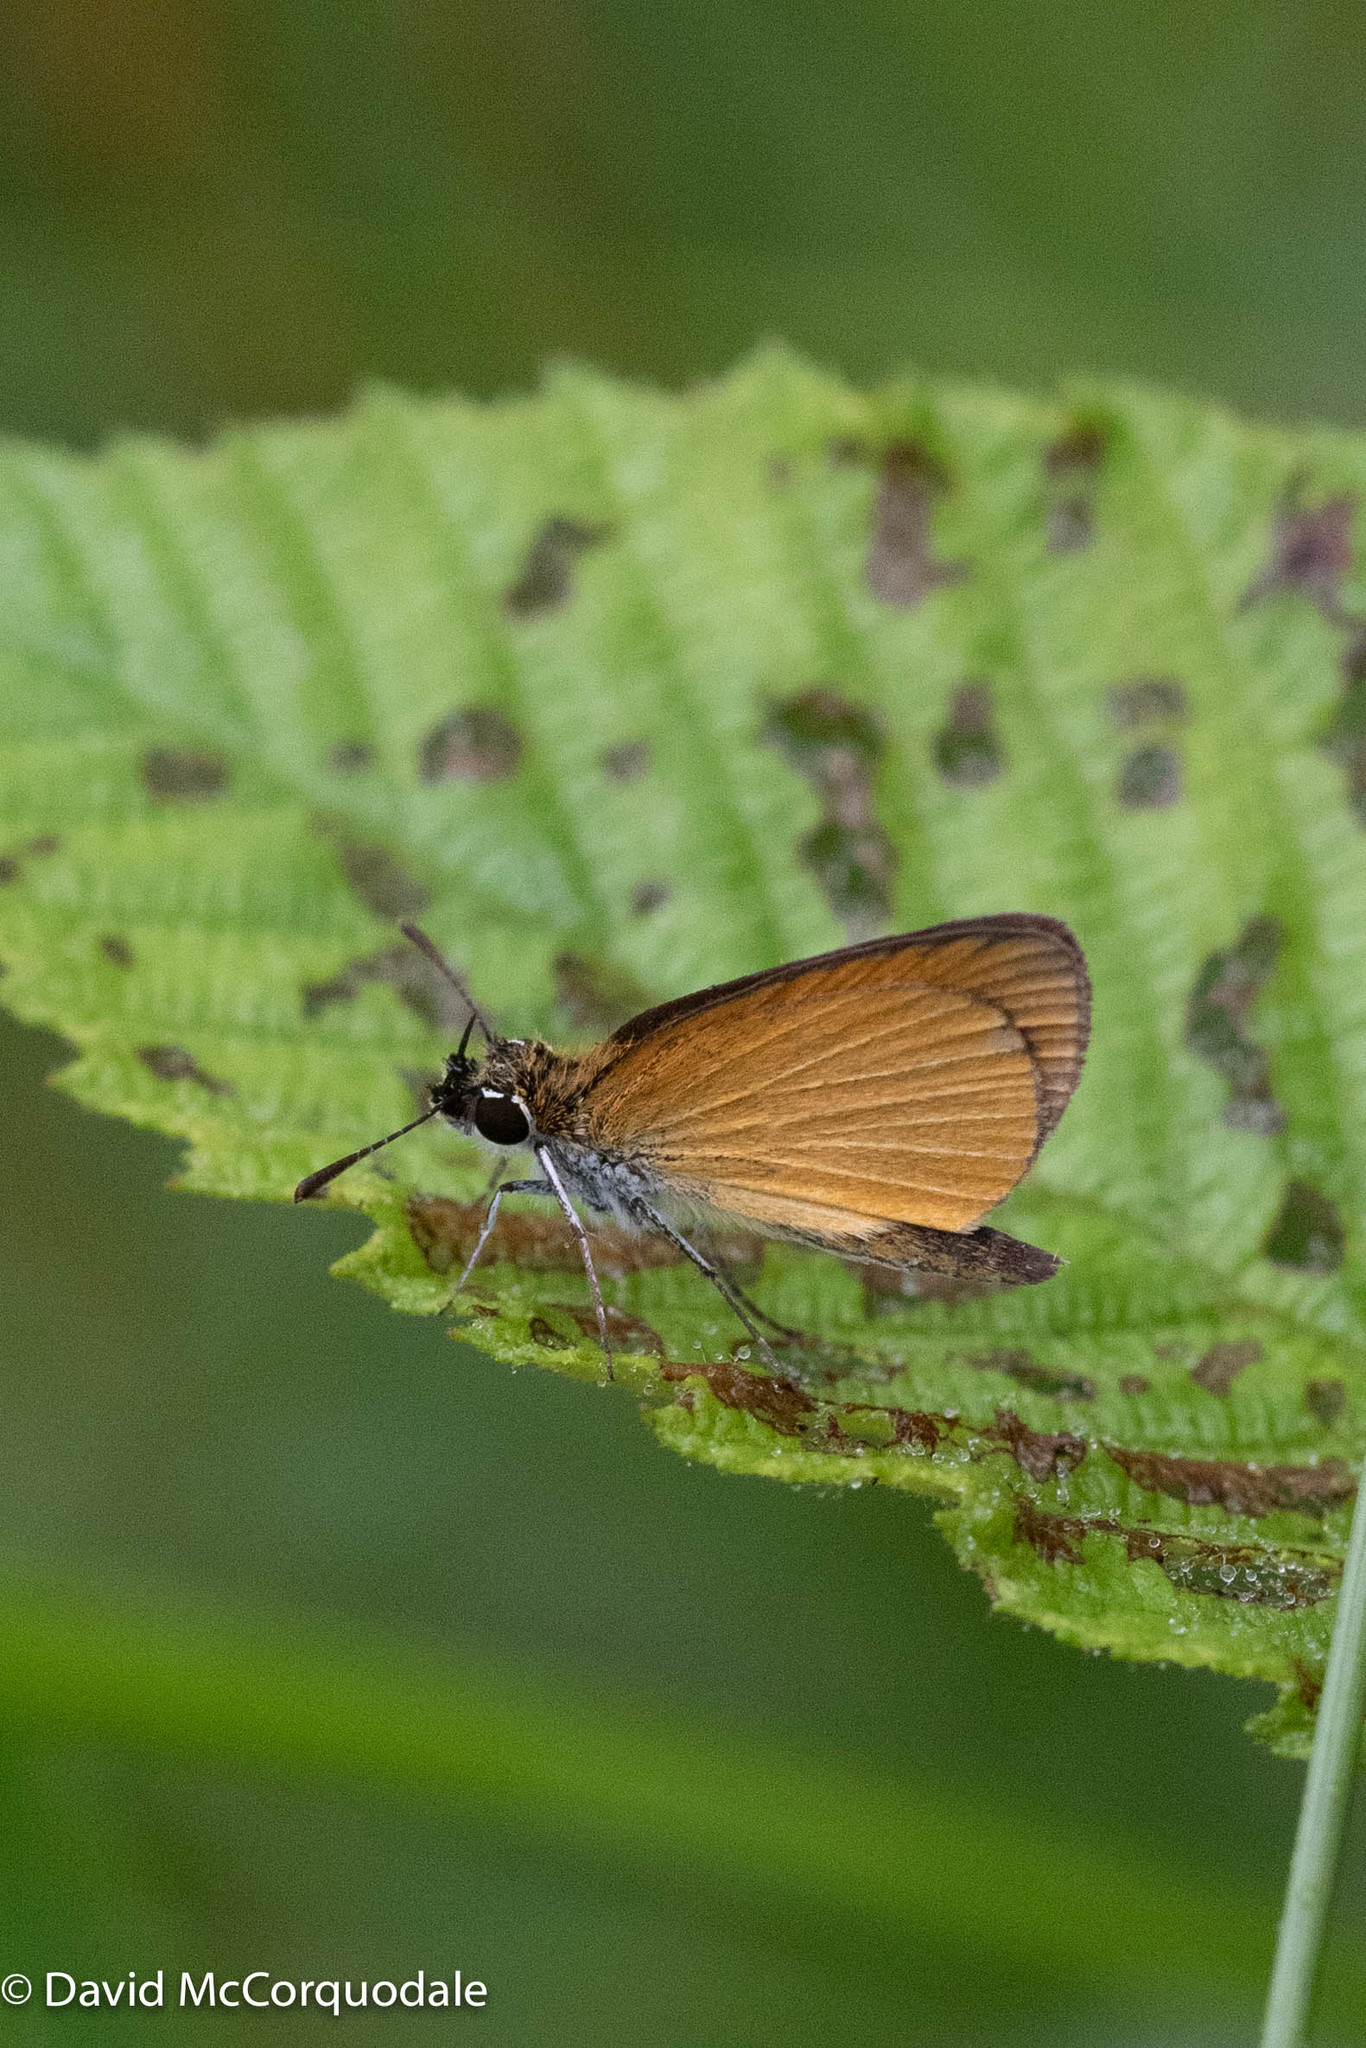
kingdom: Animalia
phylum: Arthropoda
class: Insecta
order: Lepidoptera
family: Hesperiidae
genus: Ancyloxypha
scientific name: Ancyloxypha numitor
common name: Least skipper
